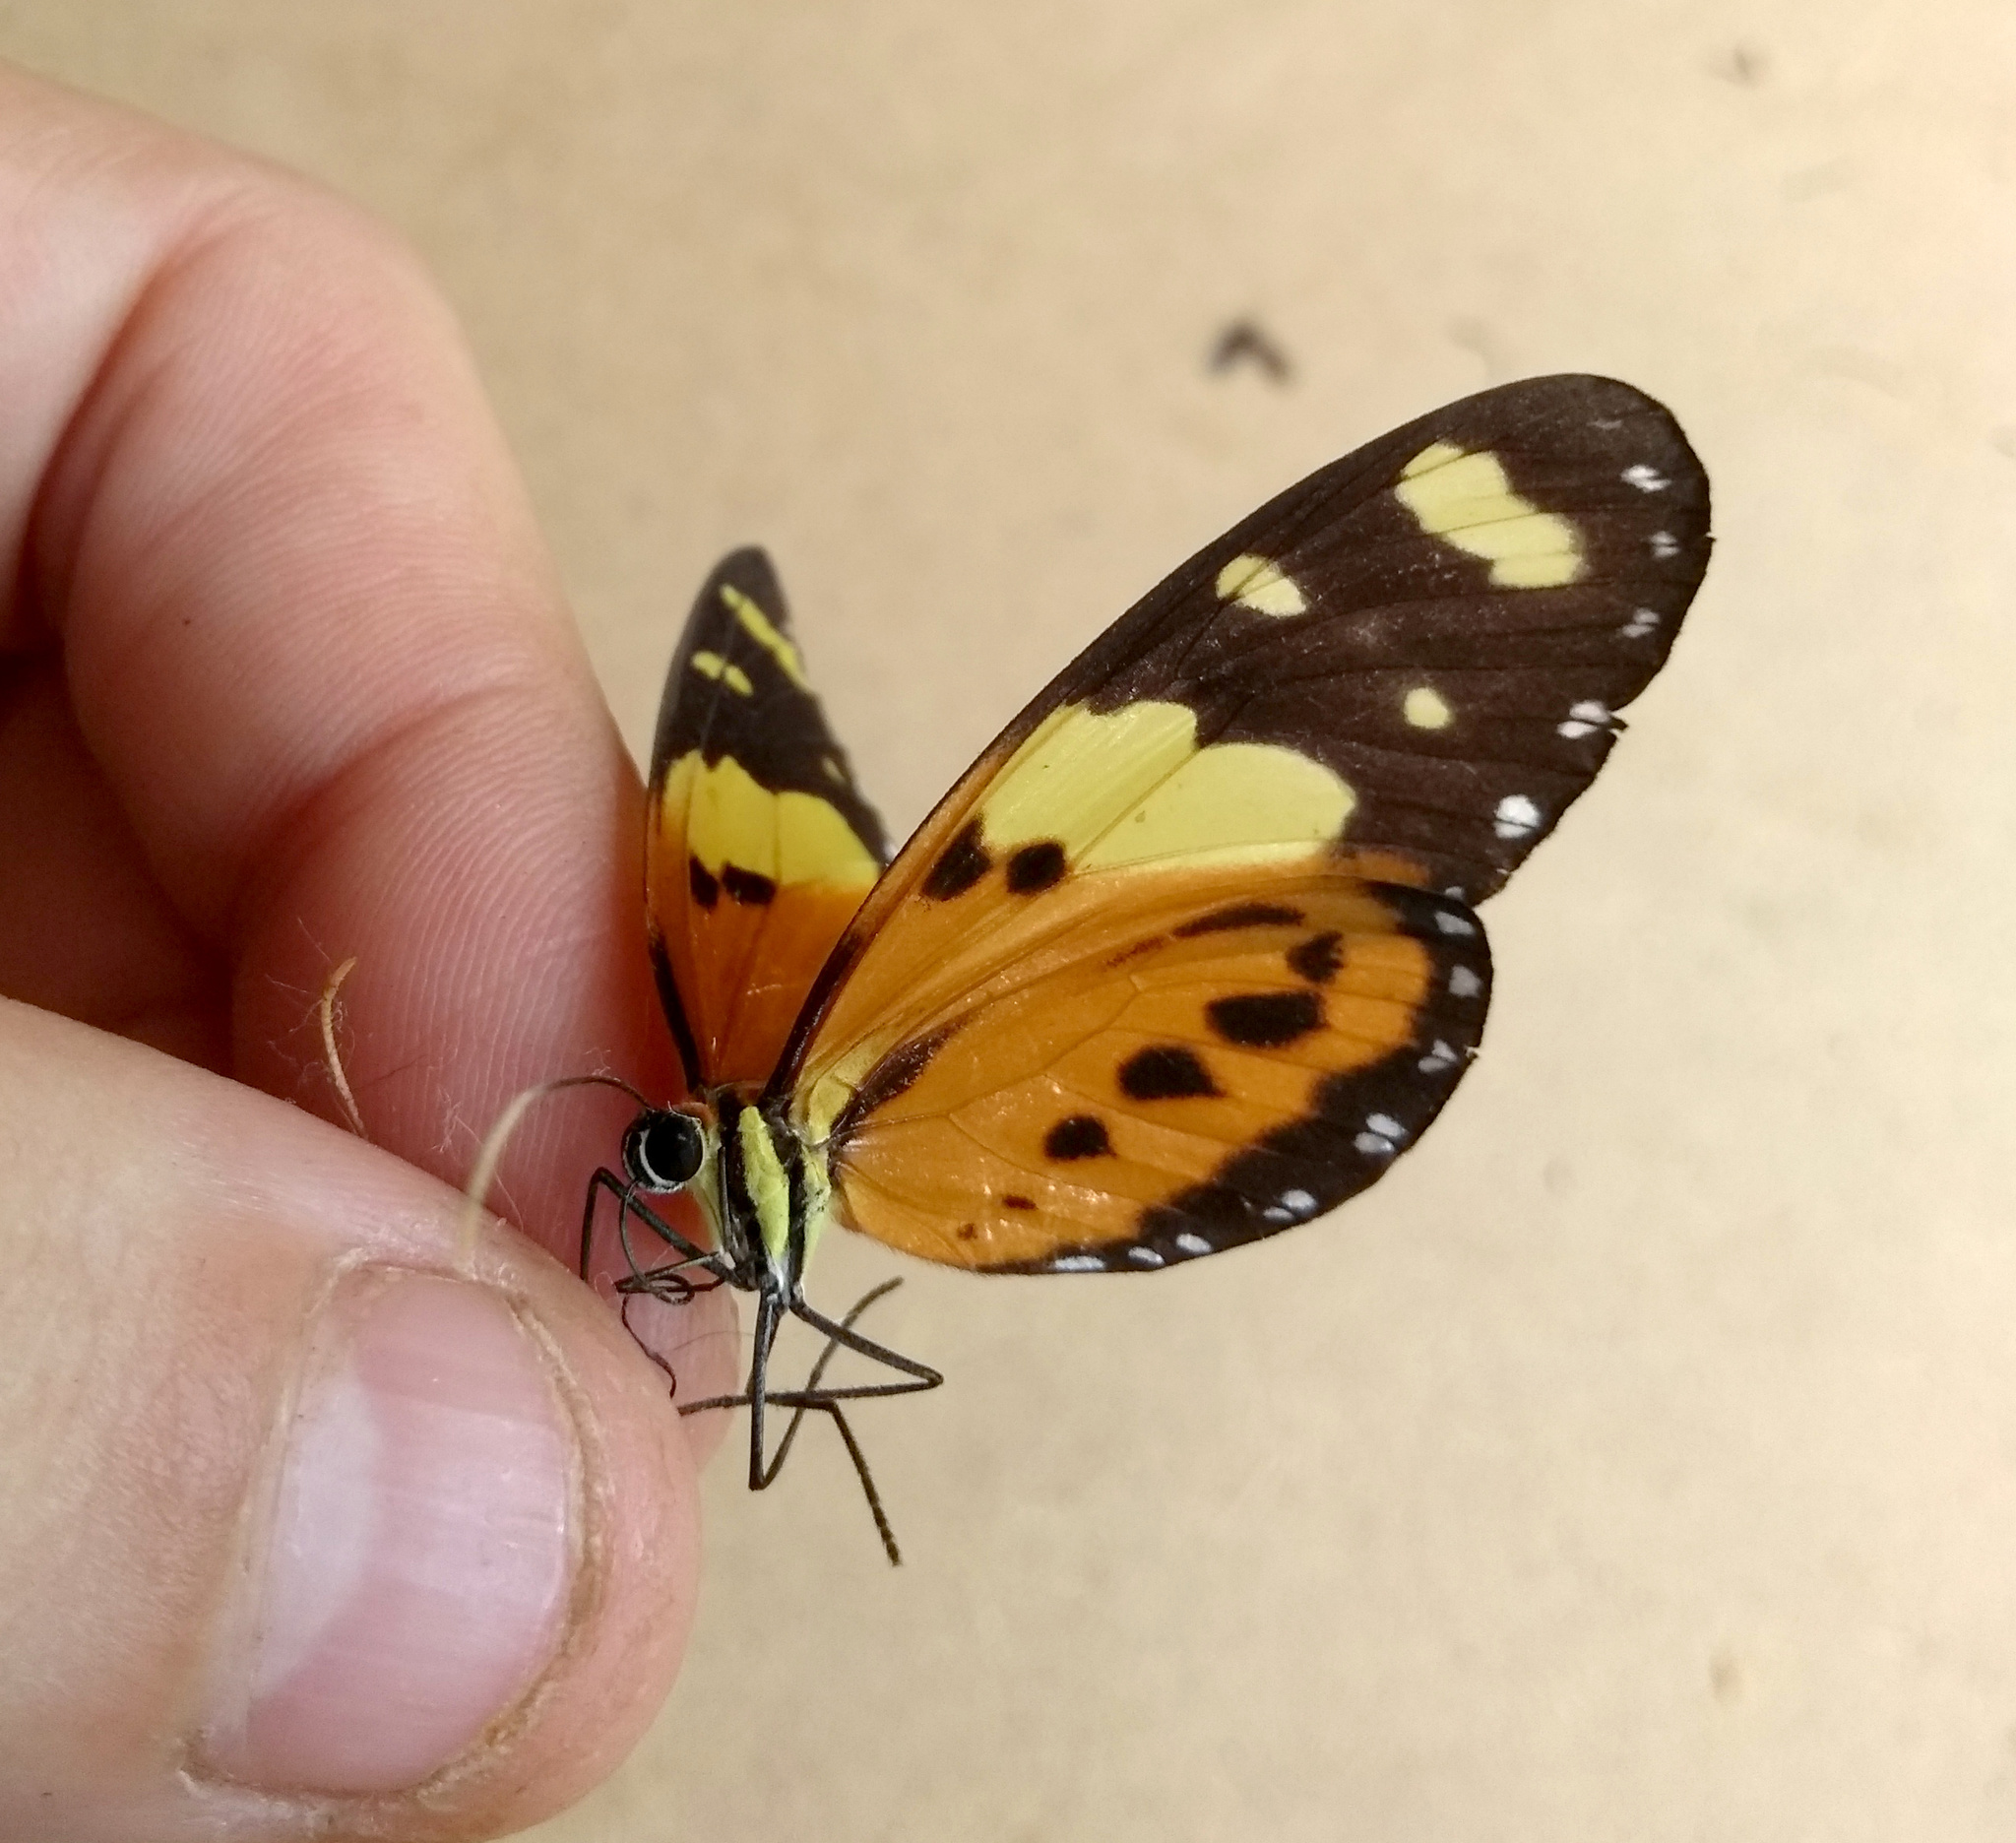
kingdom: Animalia
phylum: Arthropoda
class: Insecta
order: Lepidoptera
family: Nymphalidae
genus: Melinaea
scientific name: Melinaea ludovica
